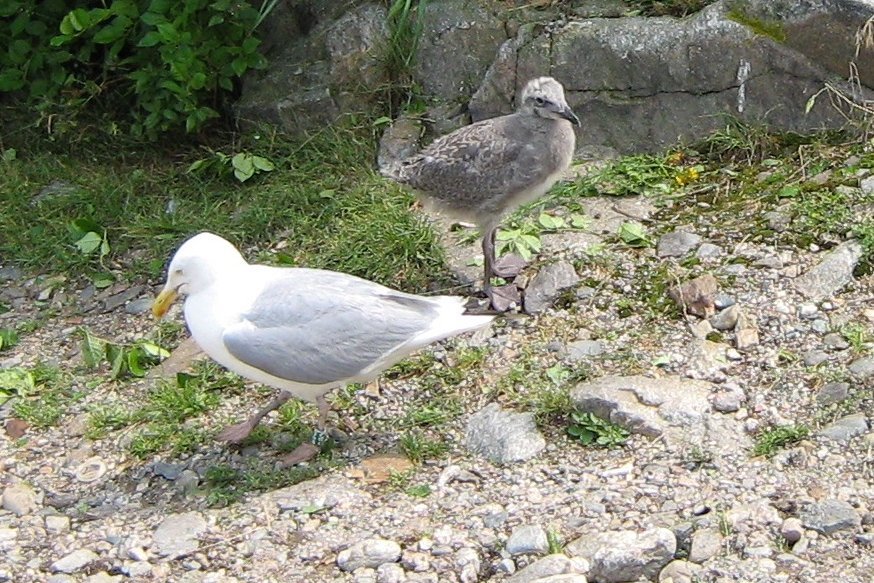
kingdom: Animalia
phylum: Chordata
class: Aves
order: Charadriiformes
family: Laridae
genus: Larus
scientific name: Larus smithsonianus
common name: American herring gull
